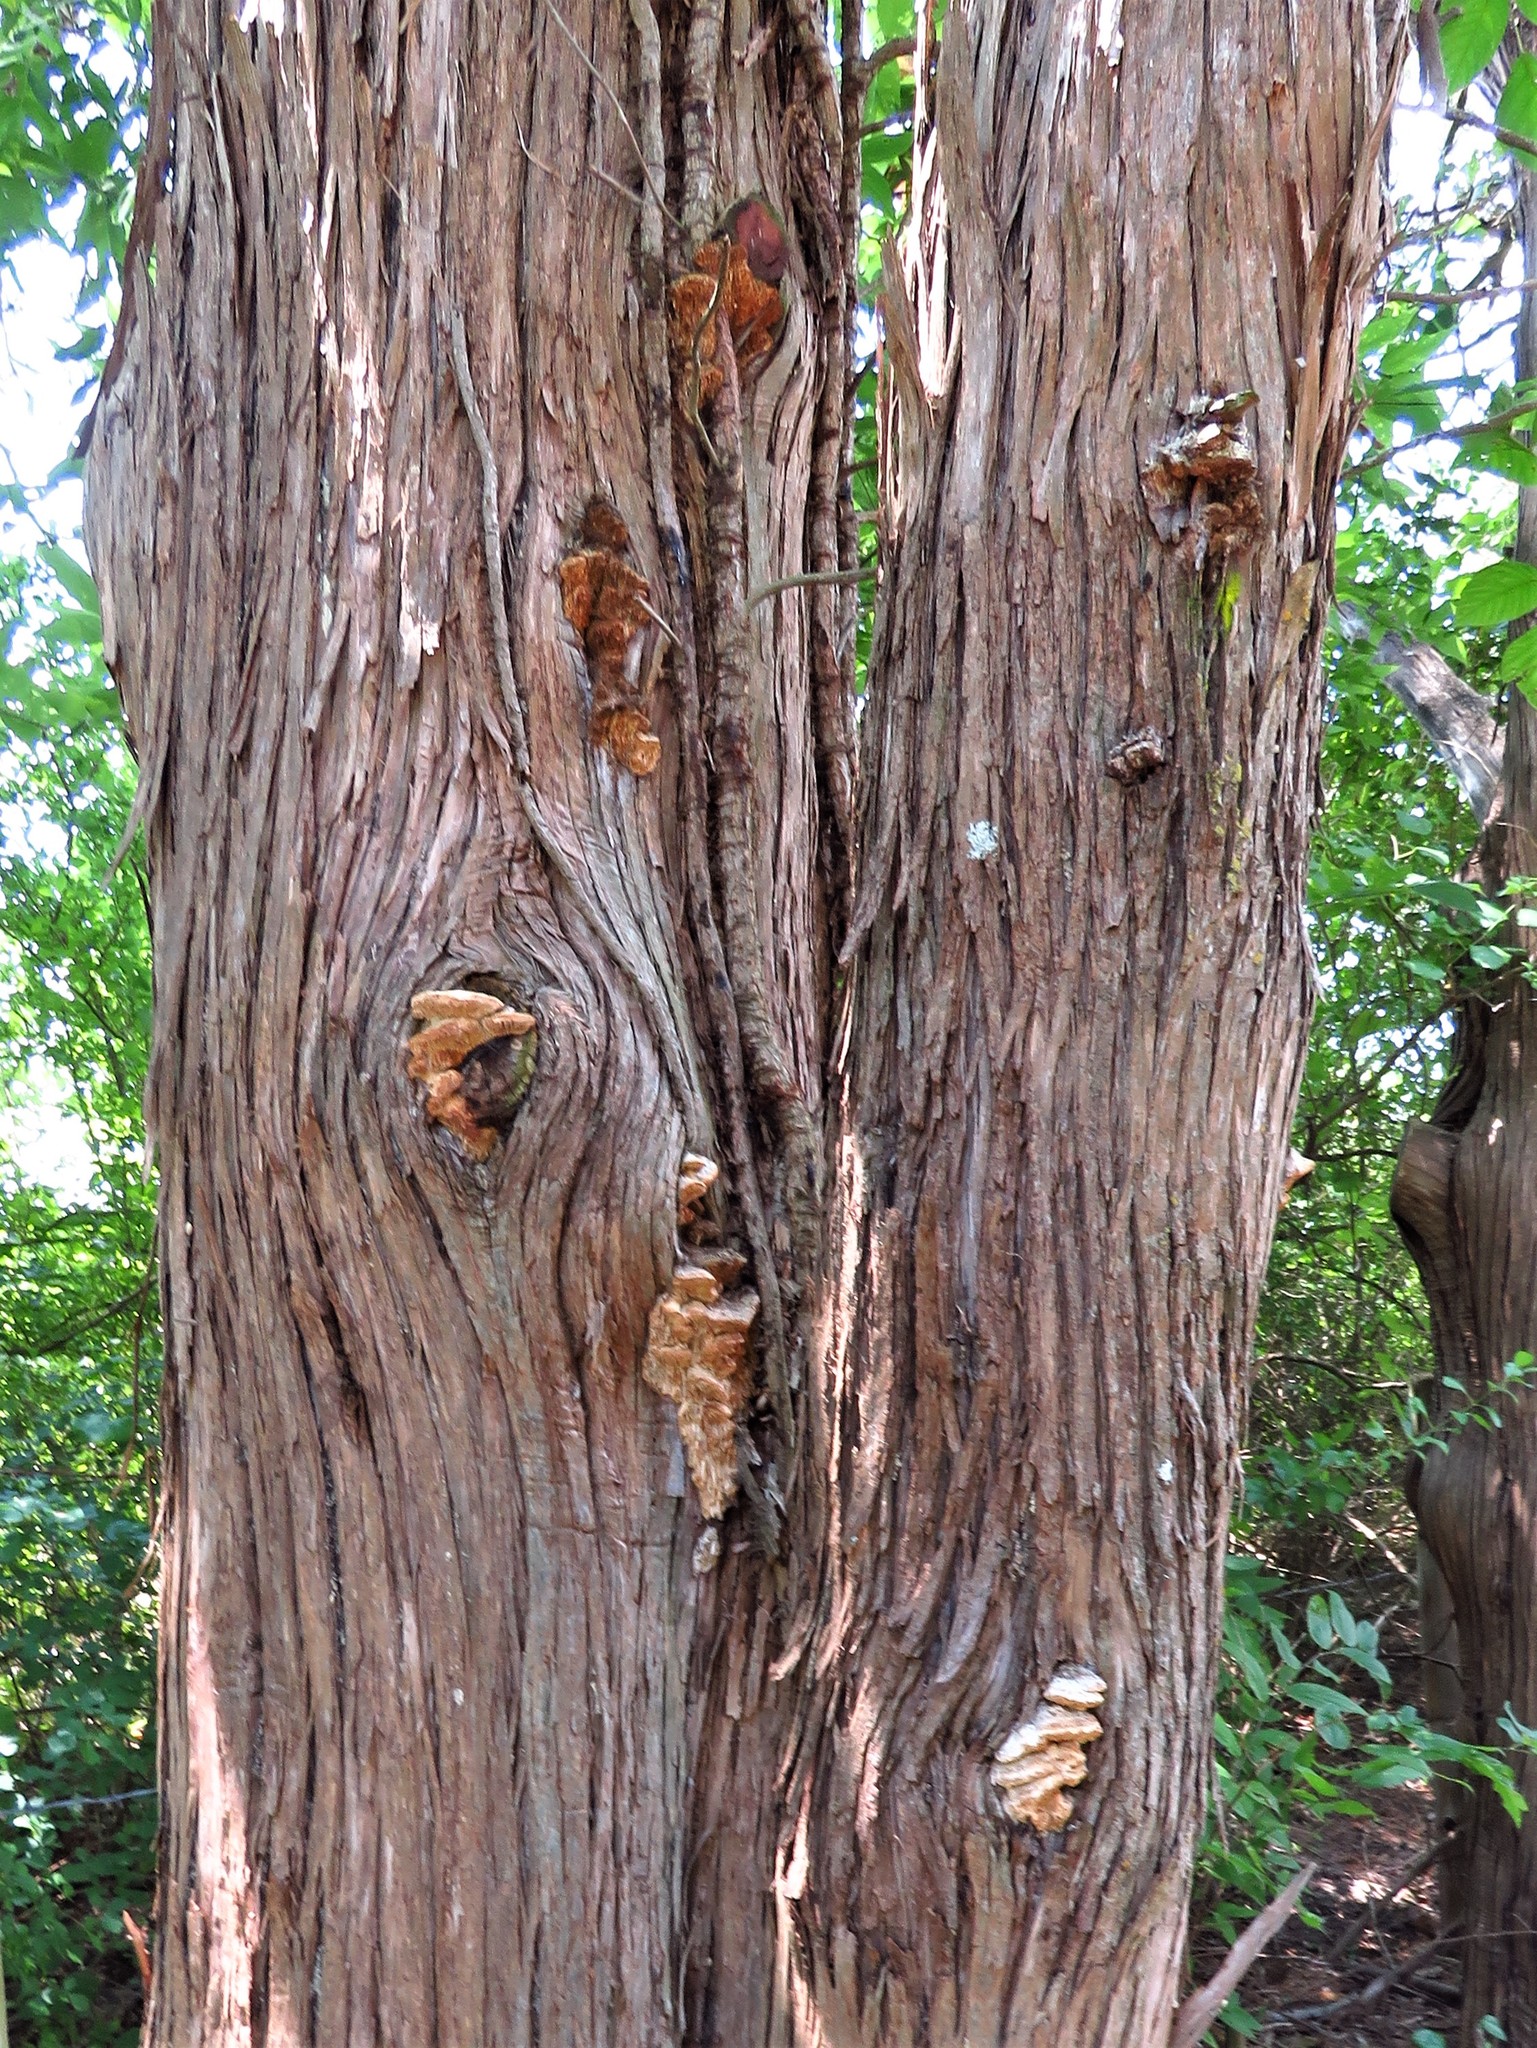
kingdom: Fungi
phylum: Basidiomycota
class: Agaricomycetes
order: Polyporales
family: Fomitopsidaceae
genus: Fomitopsis
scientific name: Fomitopsis
